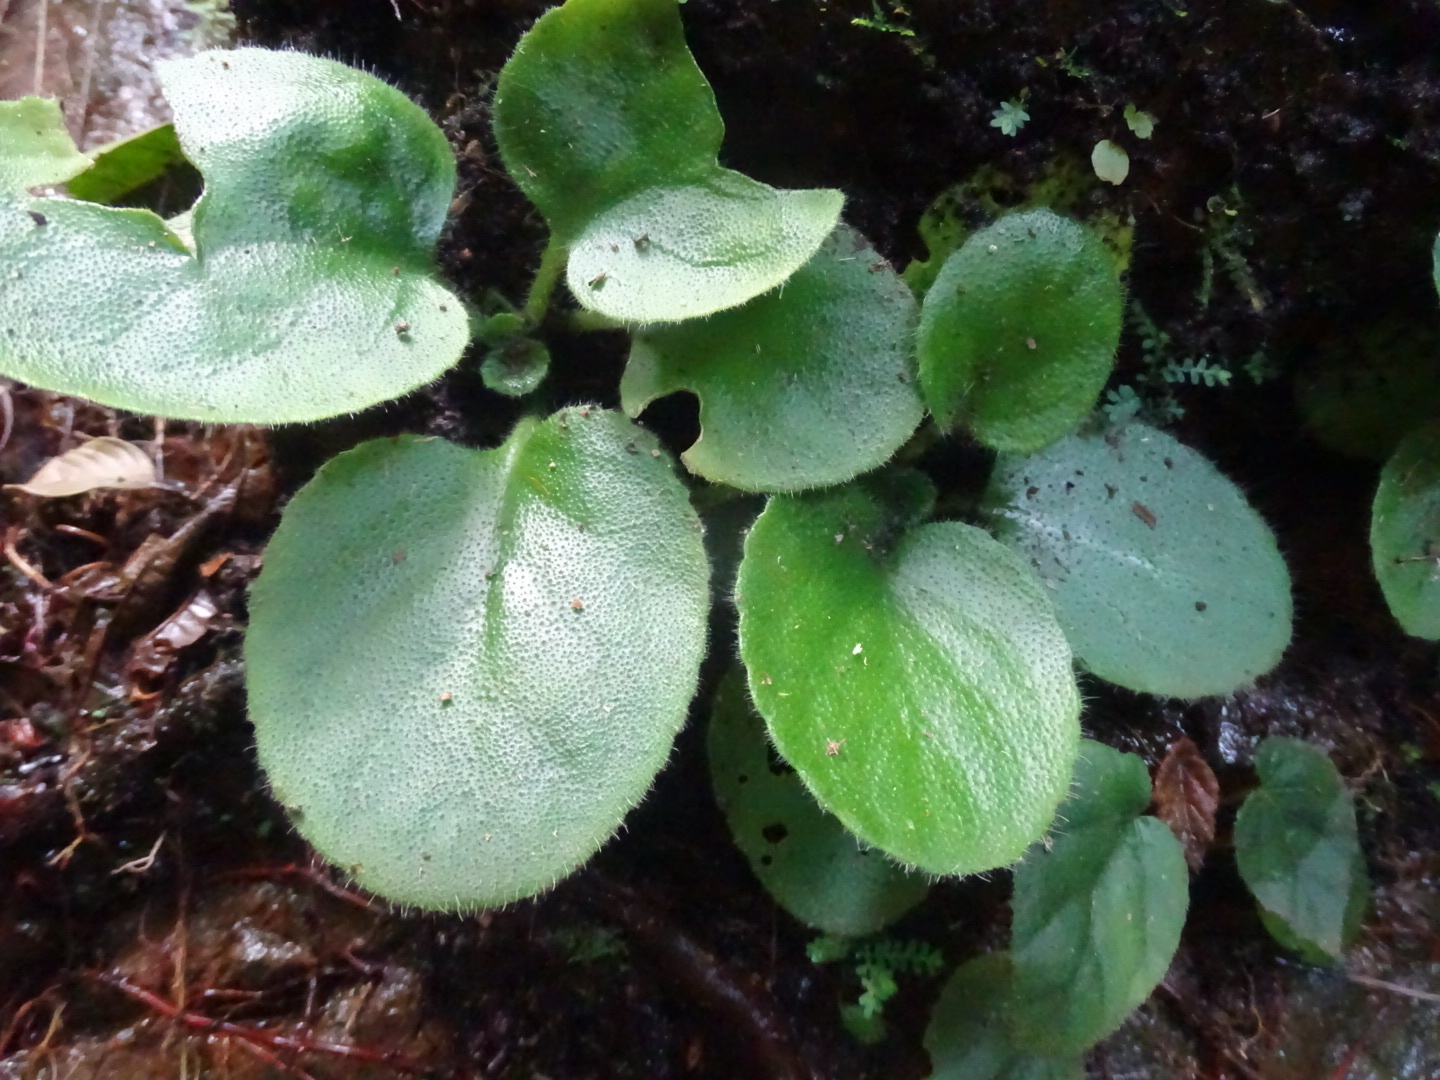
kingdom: Plantae
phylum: Tracheophyta
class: Magnoliopsida
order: Lamiales
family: Gesneriaceae
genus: Primulina
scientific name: Primulina dryas
